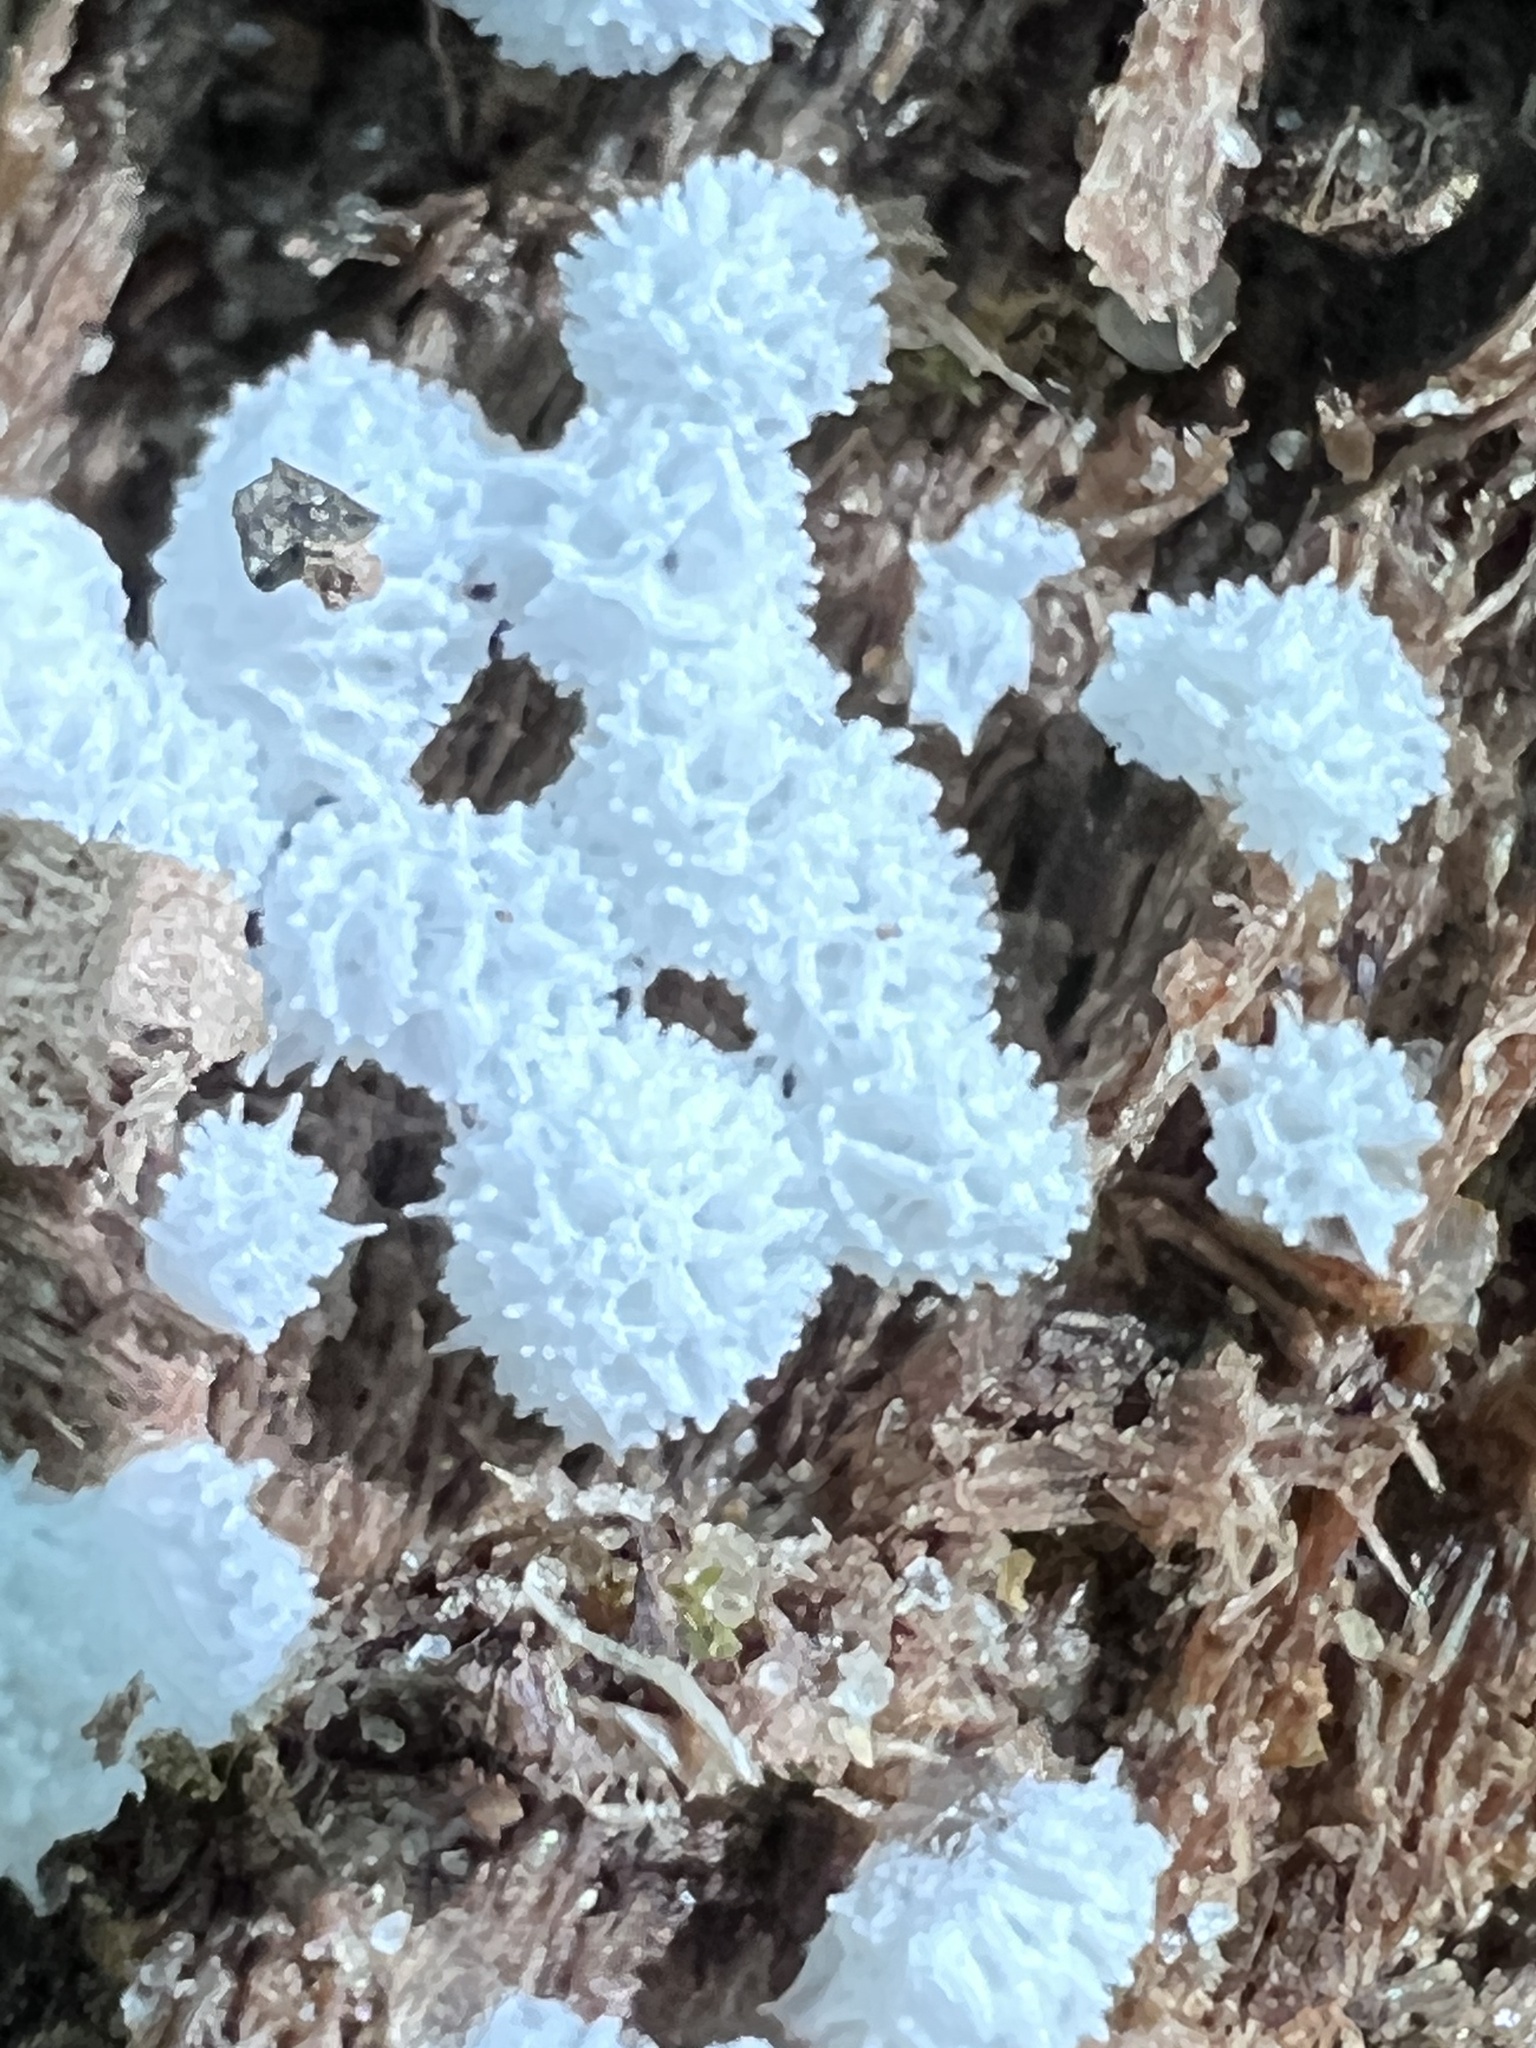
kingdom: Protozoa
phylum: Mycetozoa
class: Protosteliomycetes
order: Ceratiomyxales
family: Ceratiomyxaceae
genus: Ceratiomyxa
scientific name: Ceratiomyxa fruticulosa
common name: Honeycomb coral slime mold
